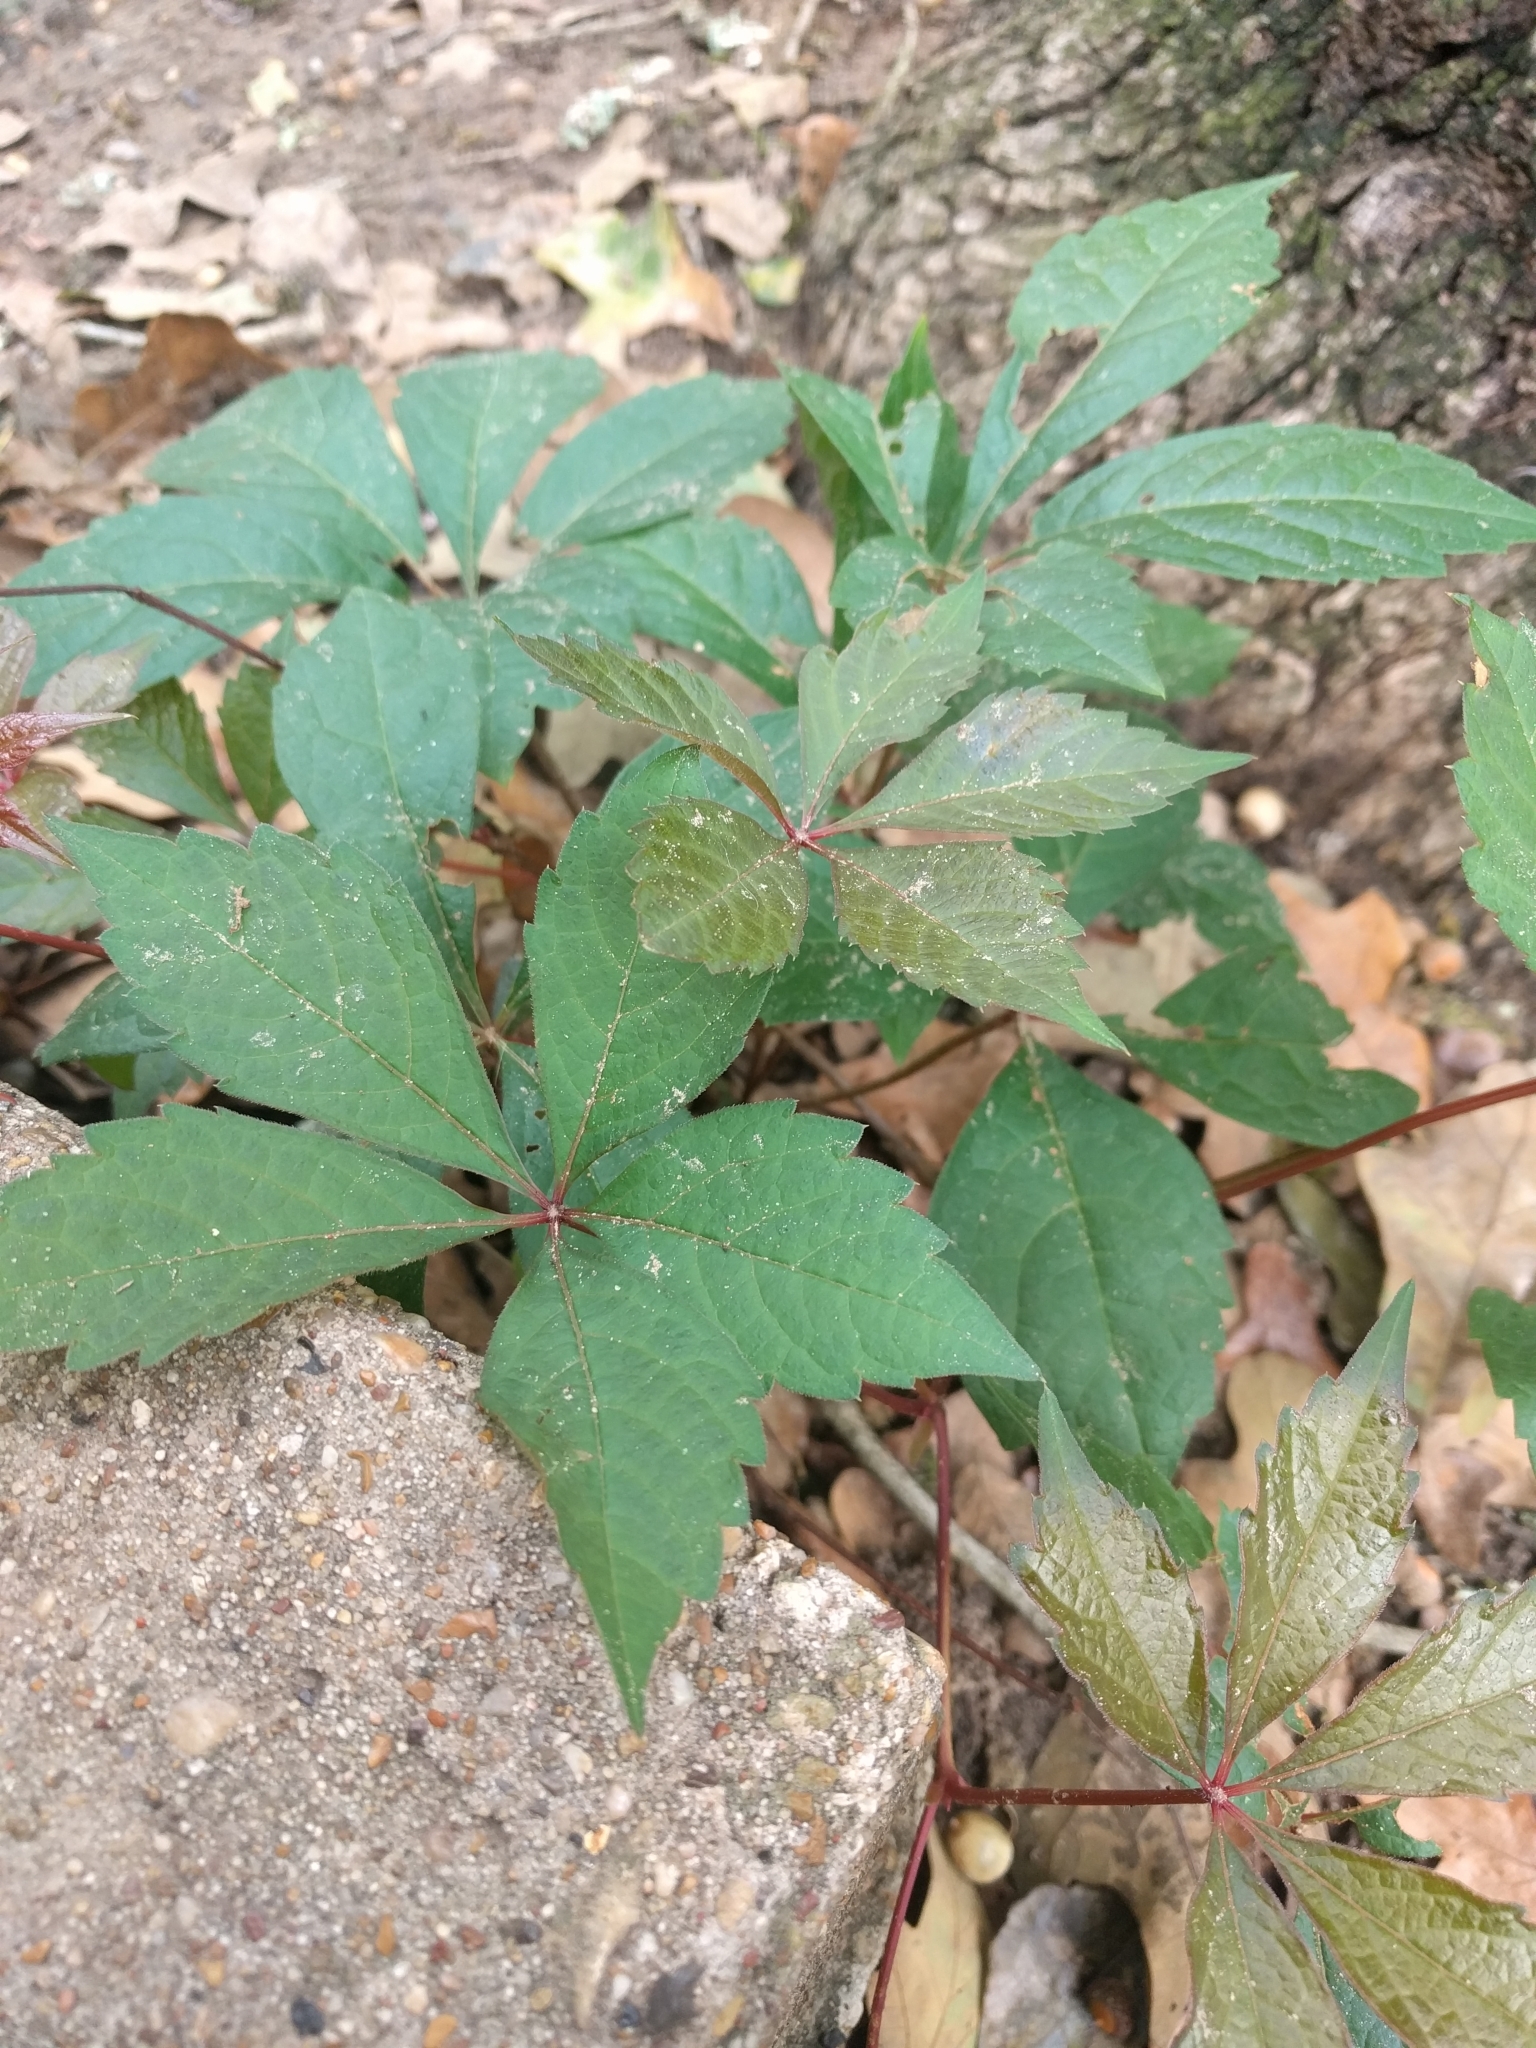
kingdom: Plantae
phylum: Tracheophyta
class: Magnoliopsida
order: Vitales
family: Vitaceae
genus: Parthenocissus
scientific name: Parthenocissus quinquefolia
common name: Virginia-creeper
